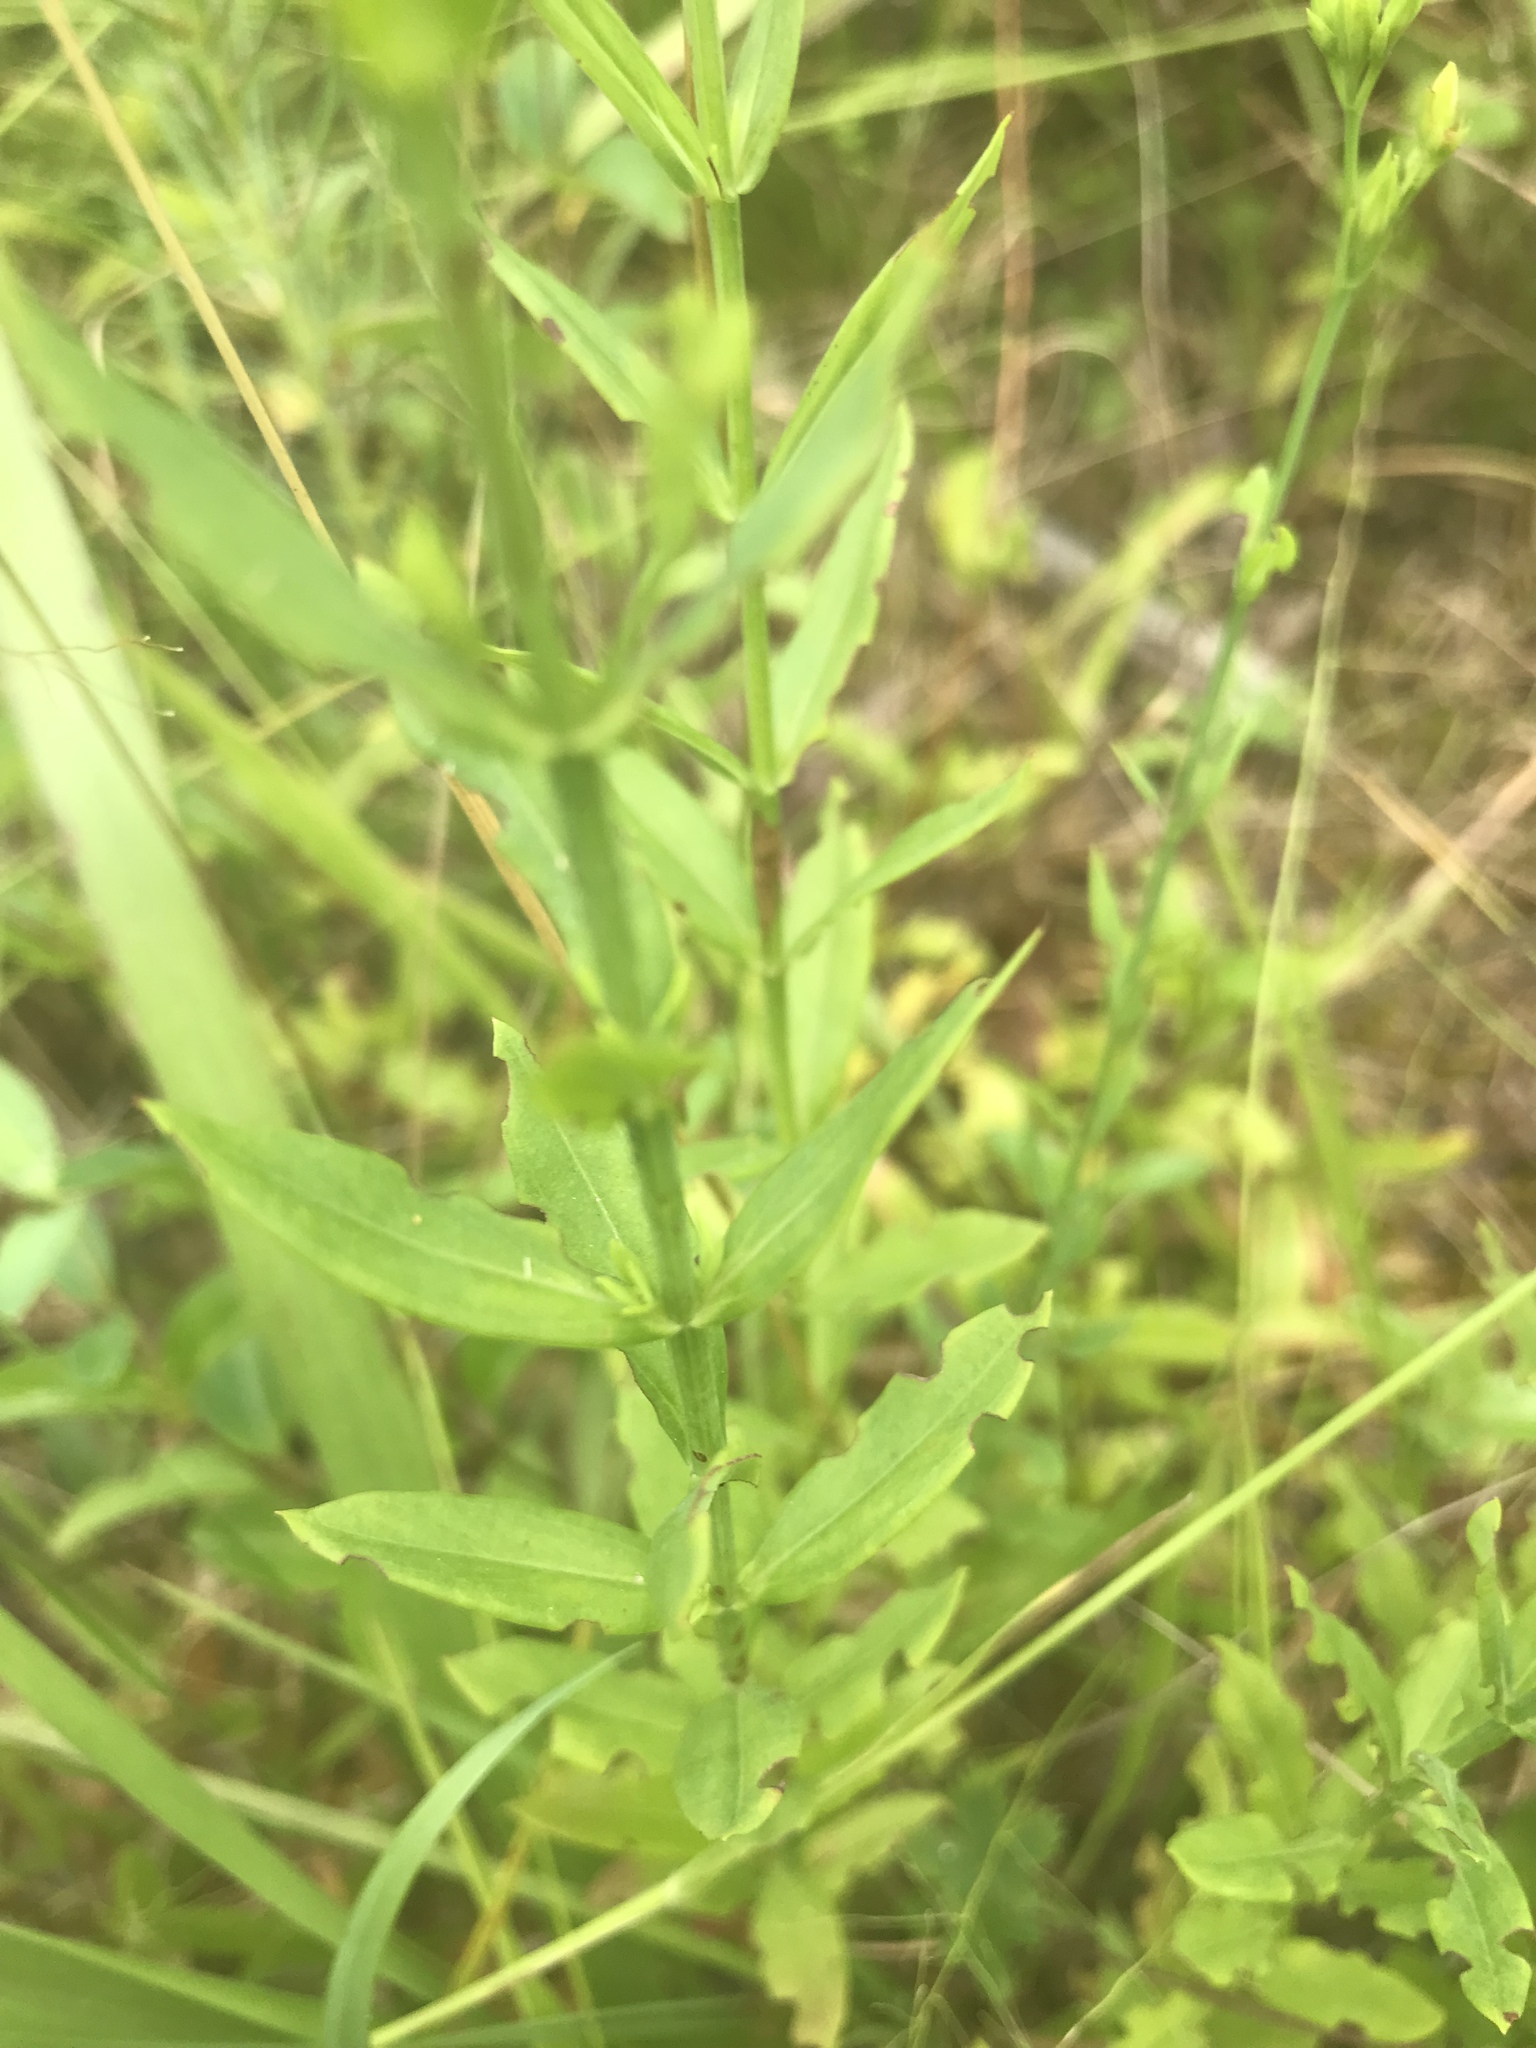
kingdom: Plantae
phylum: Tracheophyta
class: Magnoliopsida
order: Malpighiales
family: Hypericaceae
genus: Hypericum
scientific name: Hypericum virgatum
